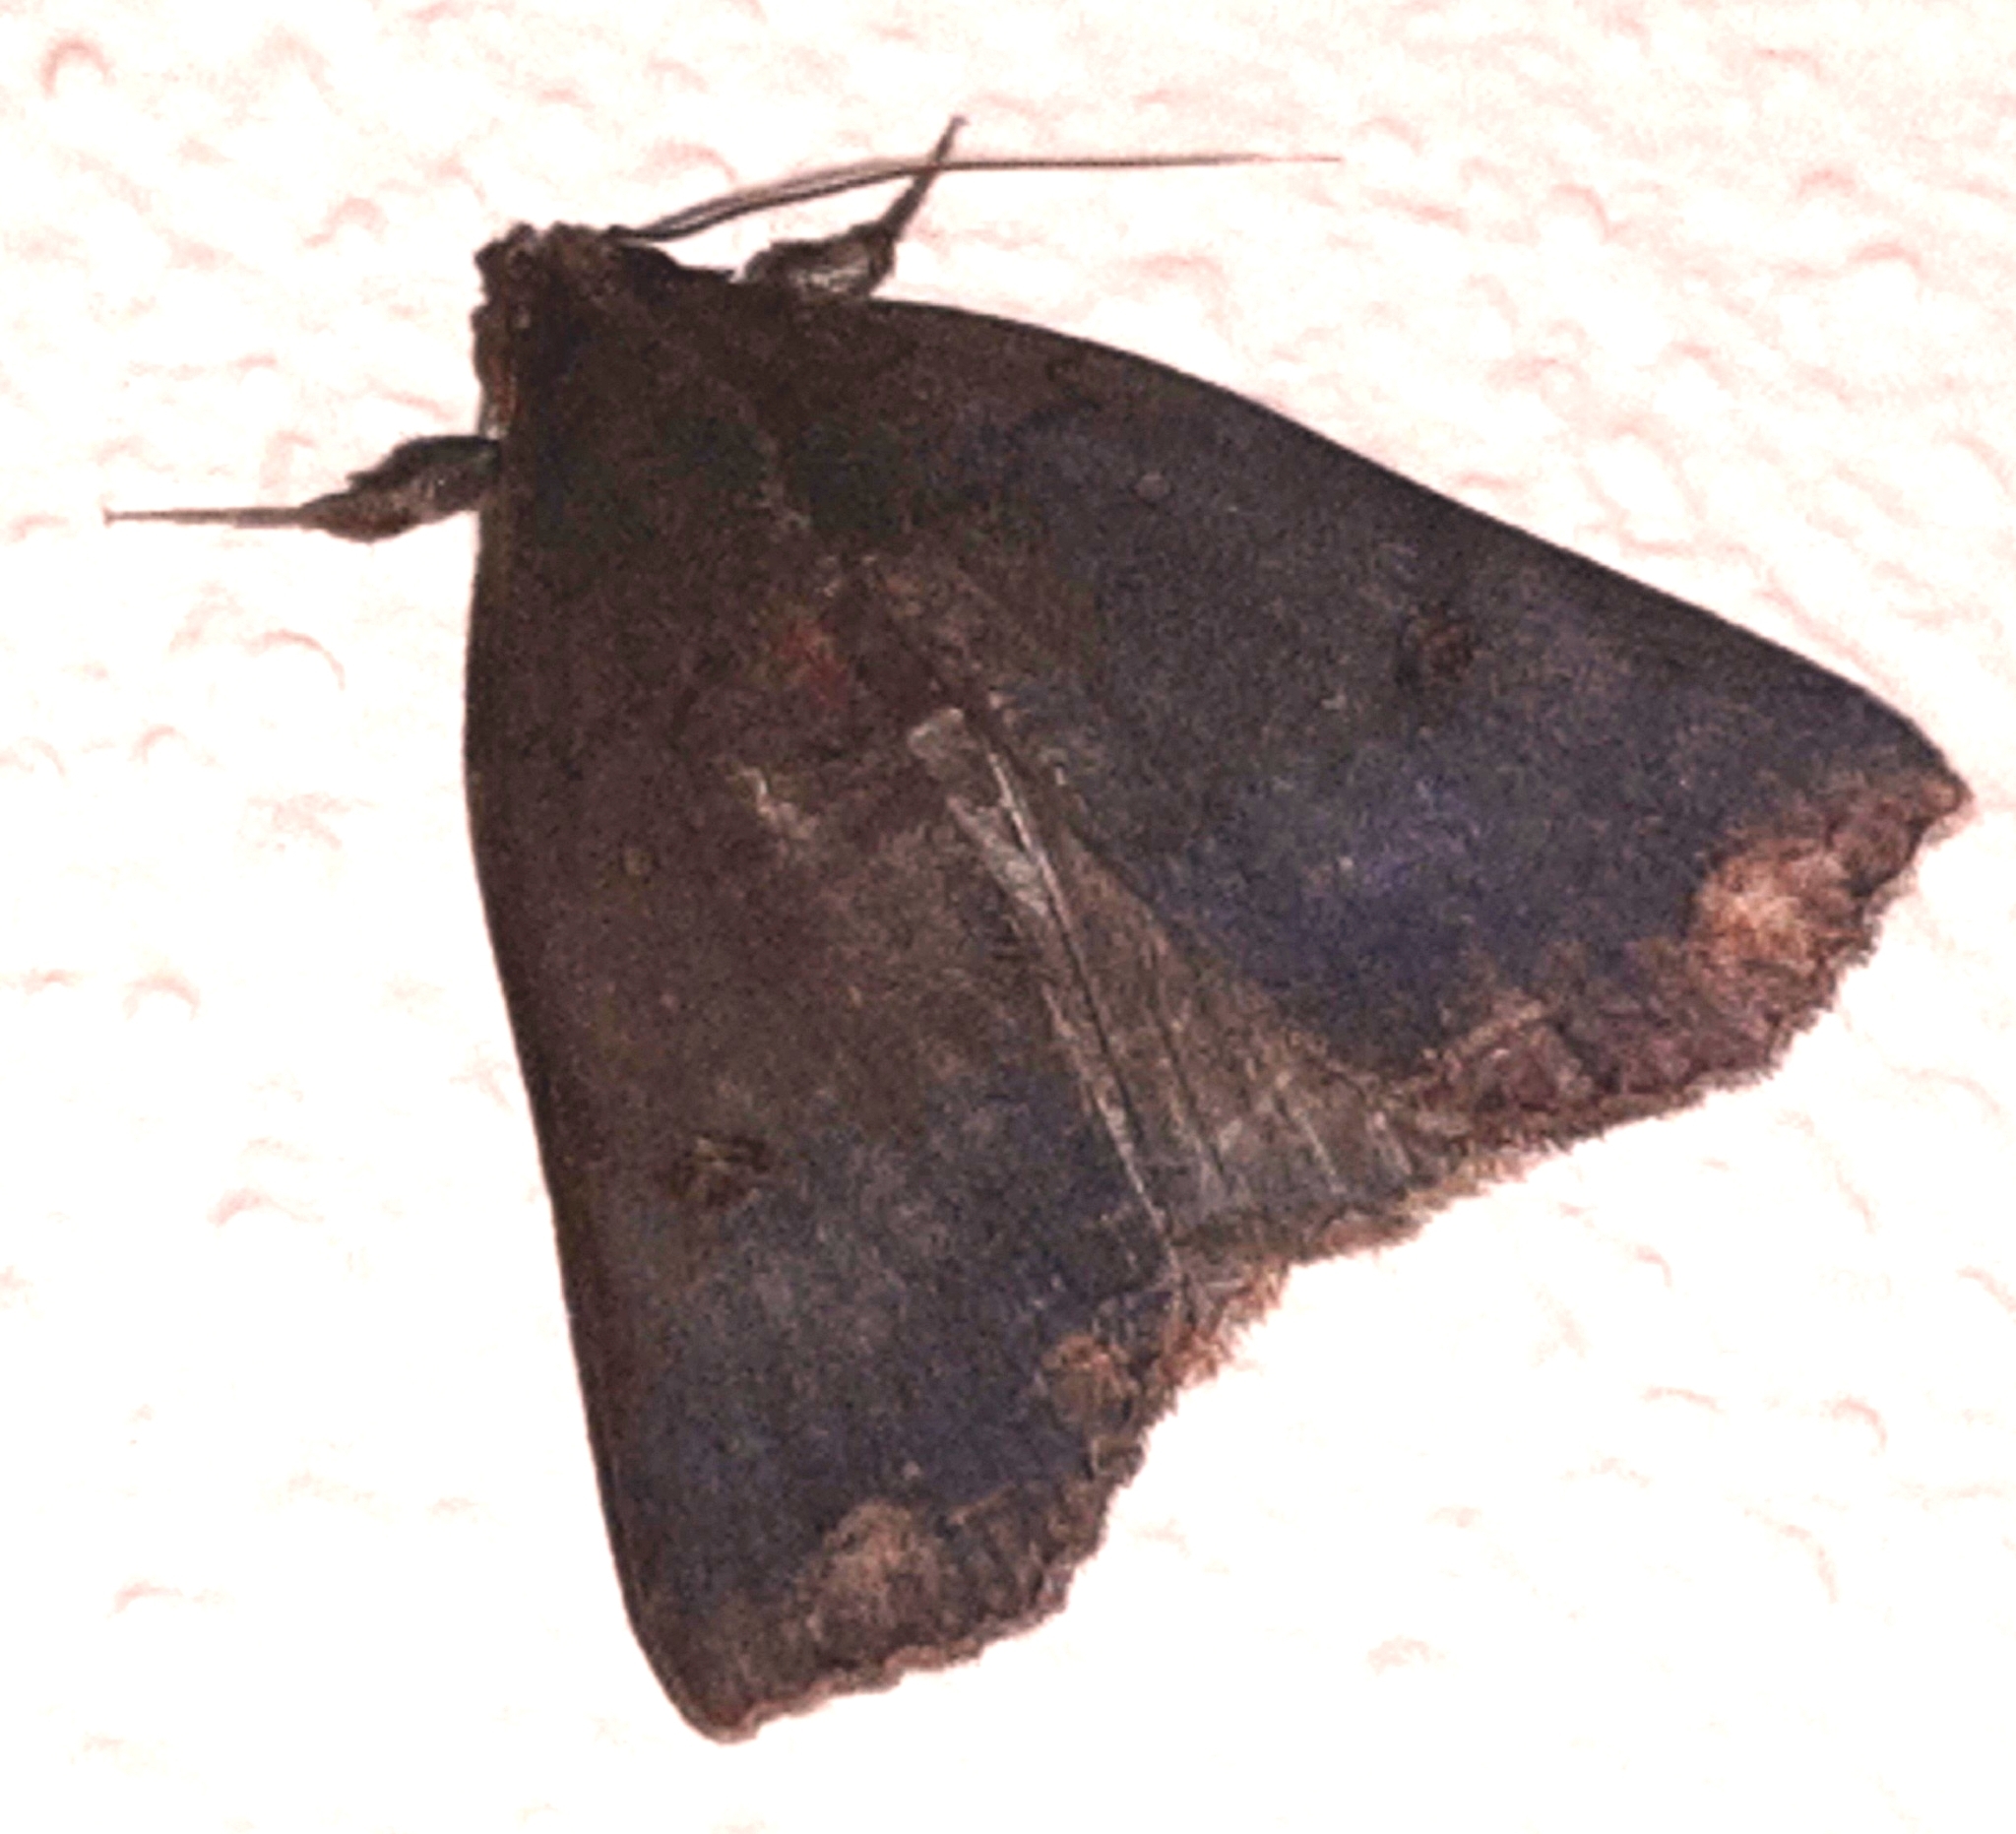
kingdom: Animalia
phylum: Arthropoda
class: Insecta
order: Lepidoptera
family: Erebidae
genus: Pyrgion
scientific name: Pyrgion repanda
